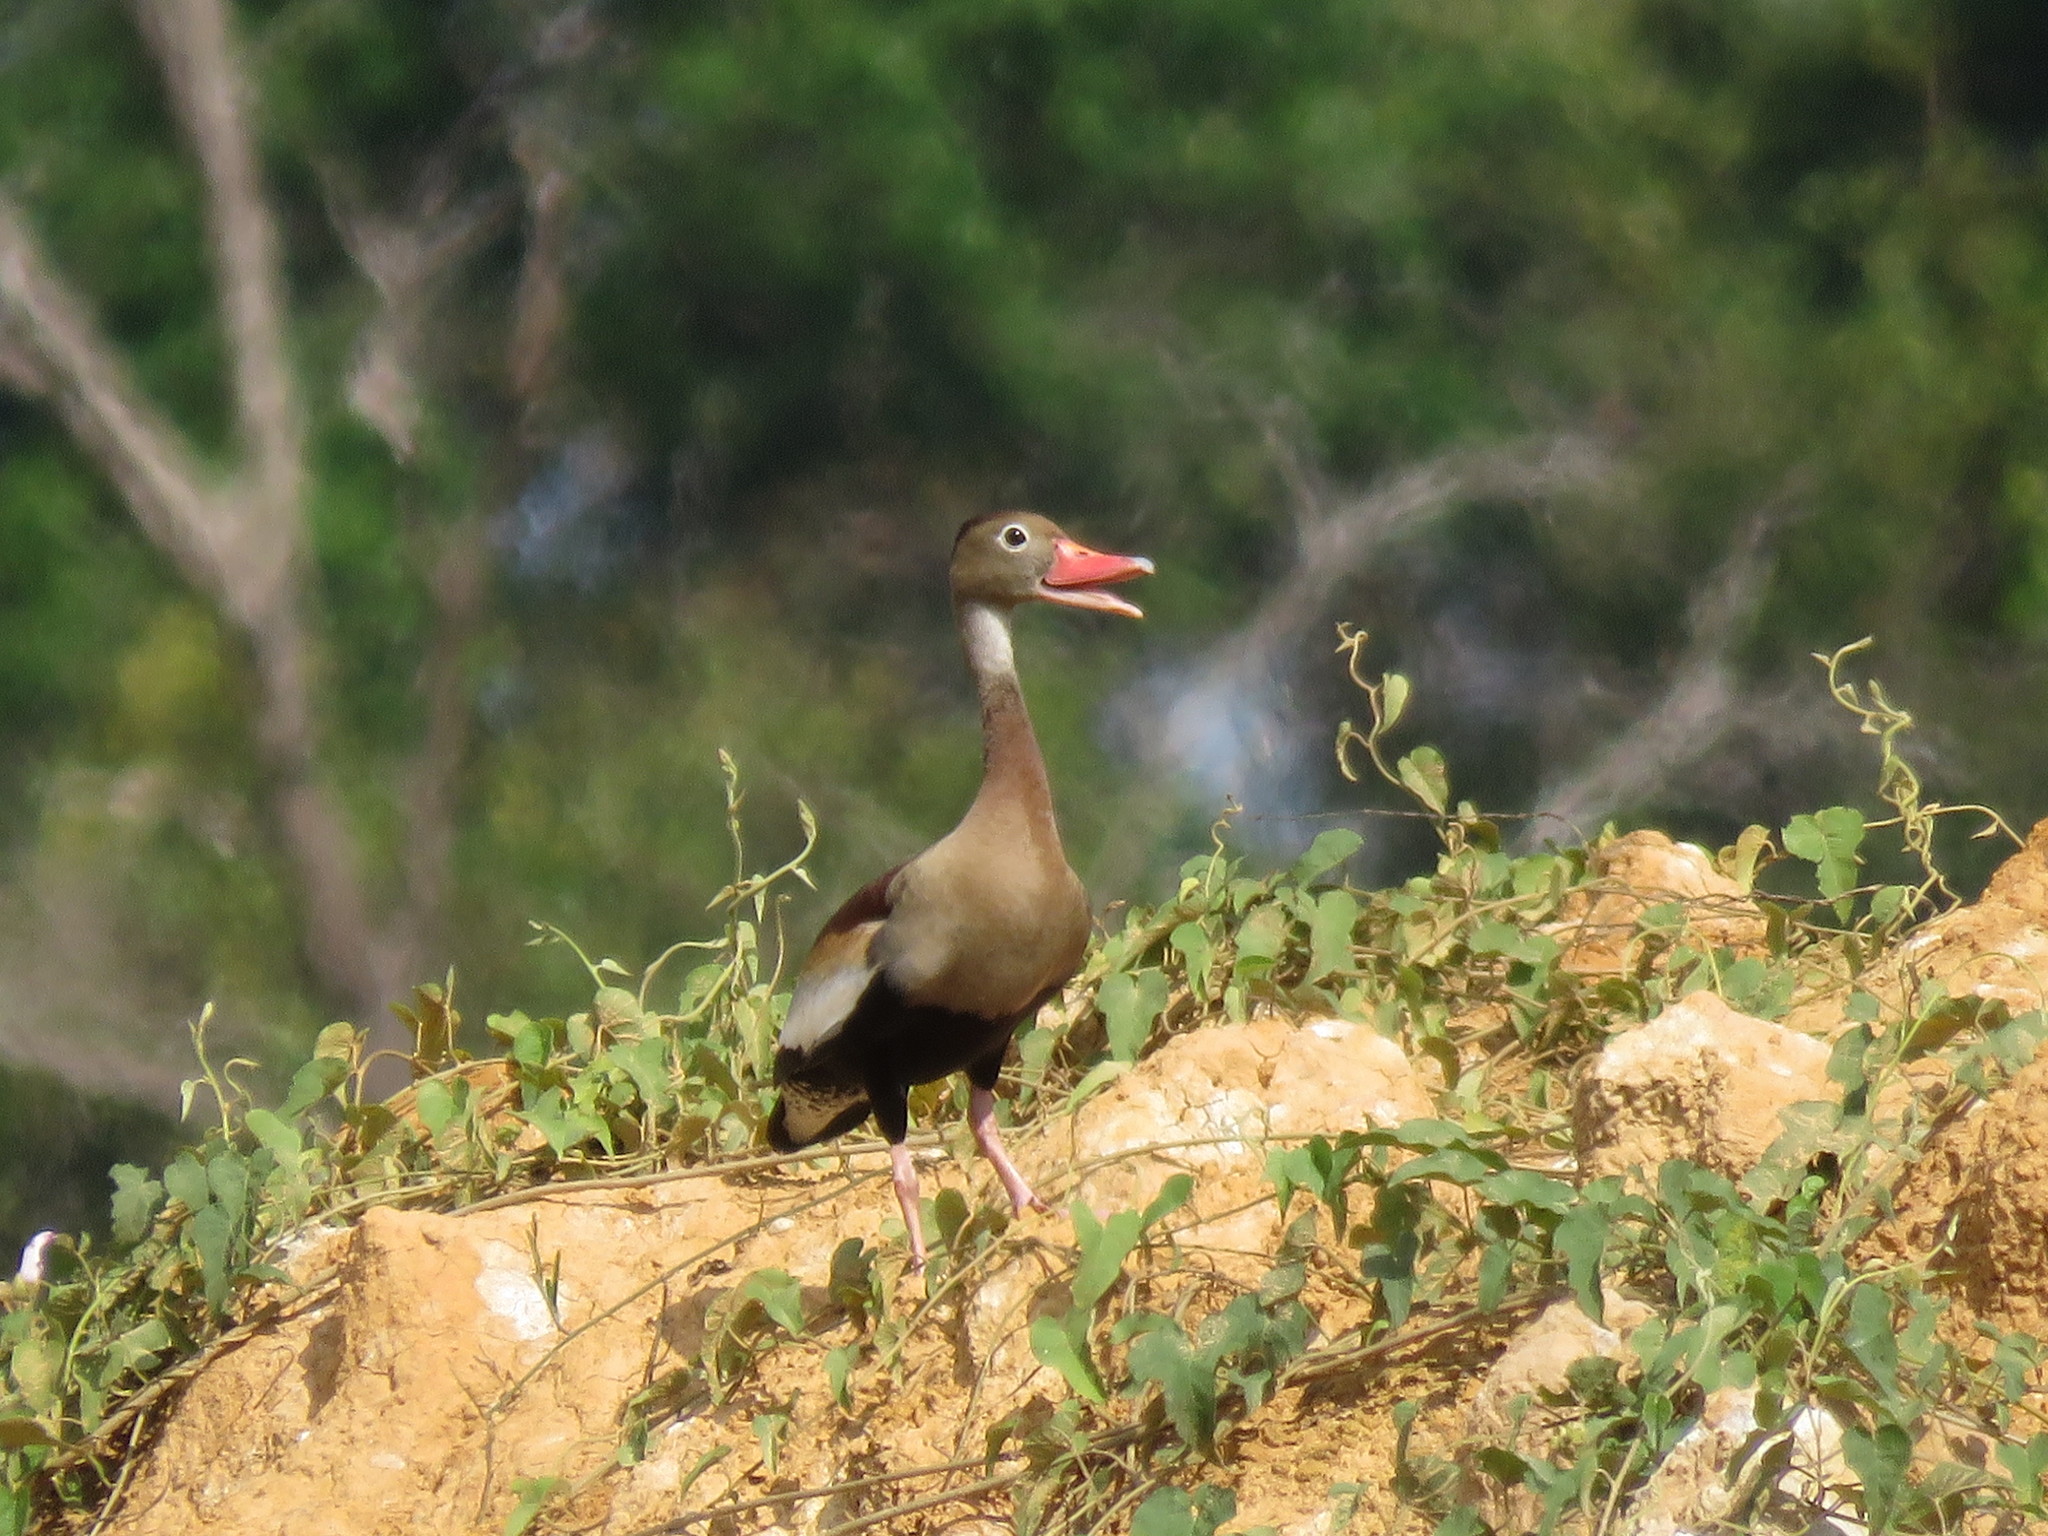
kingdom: Animalia
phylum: Chordata
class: Aves
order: Anseriformes
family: Anatidae
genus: Dendrocygna
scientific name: Dendrocygna autumnalis
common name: Black-bellied whistling duck
